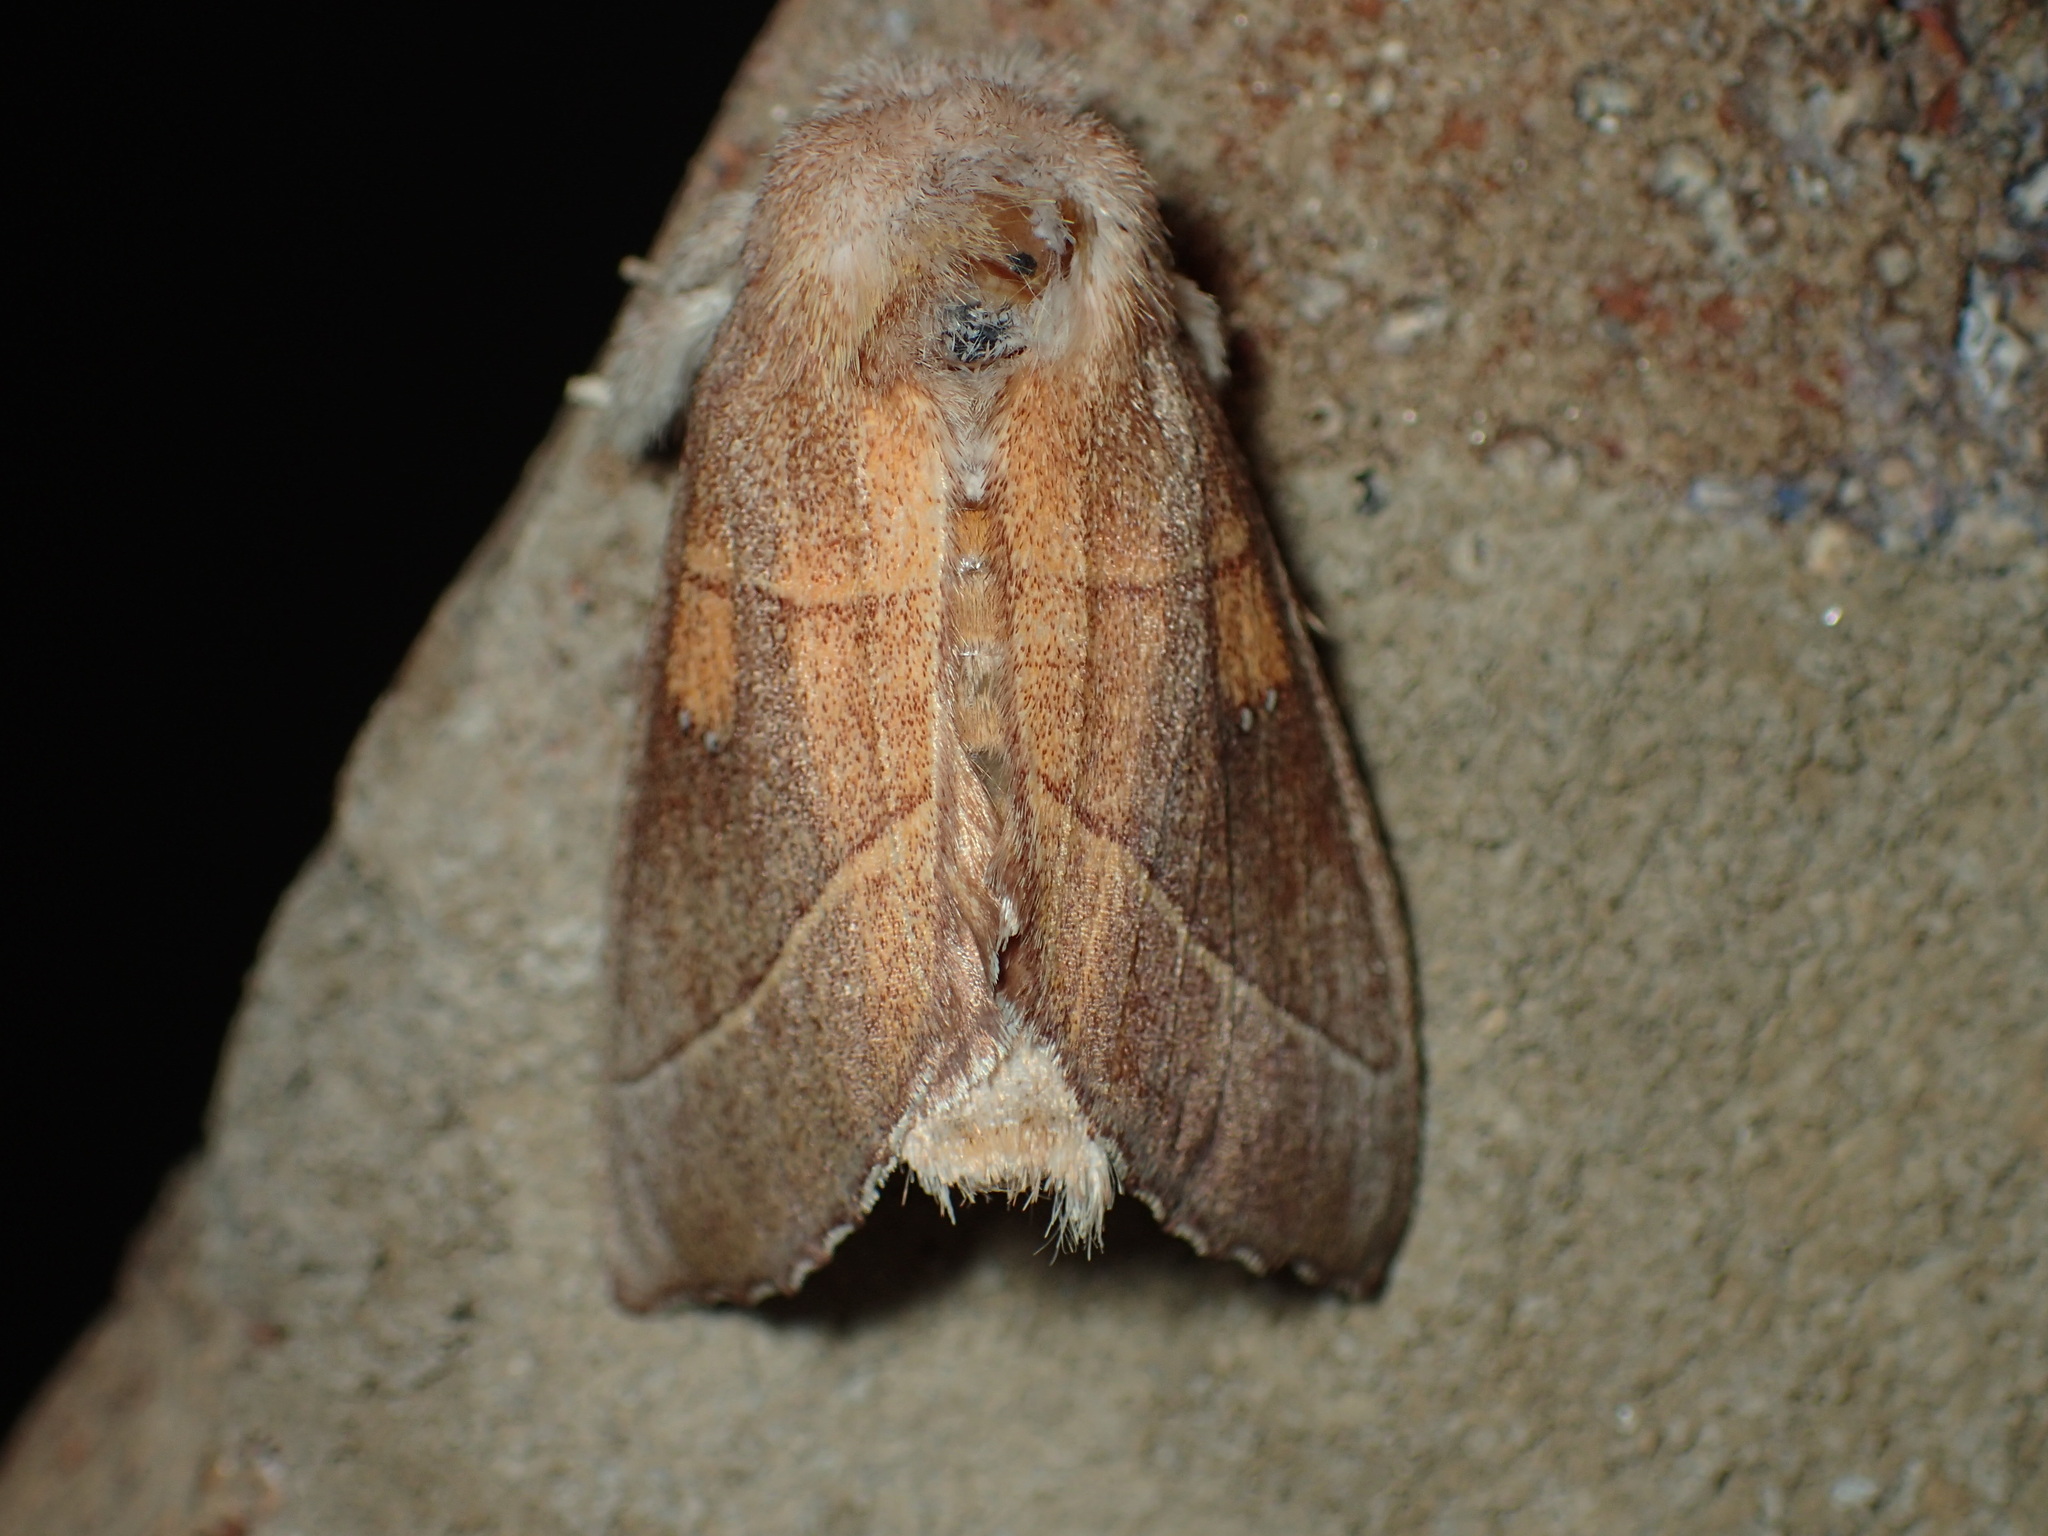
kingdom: Animalia
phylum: Arthropoda
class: Insecta
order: Lepidoptera
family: Notodontidae
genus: Nadata
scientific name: Nadata gibbosa
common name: White-dotted prominent
